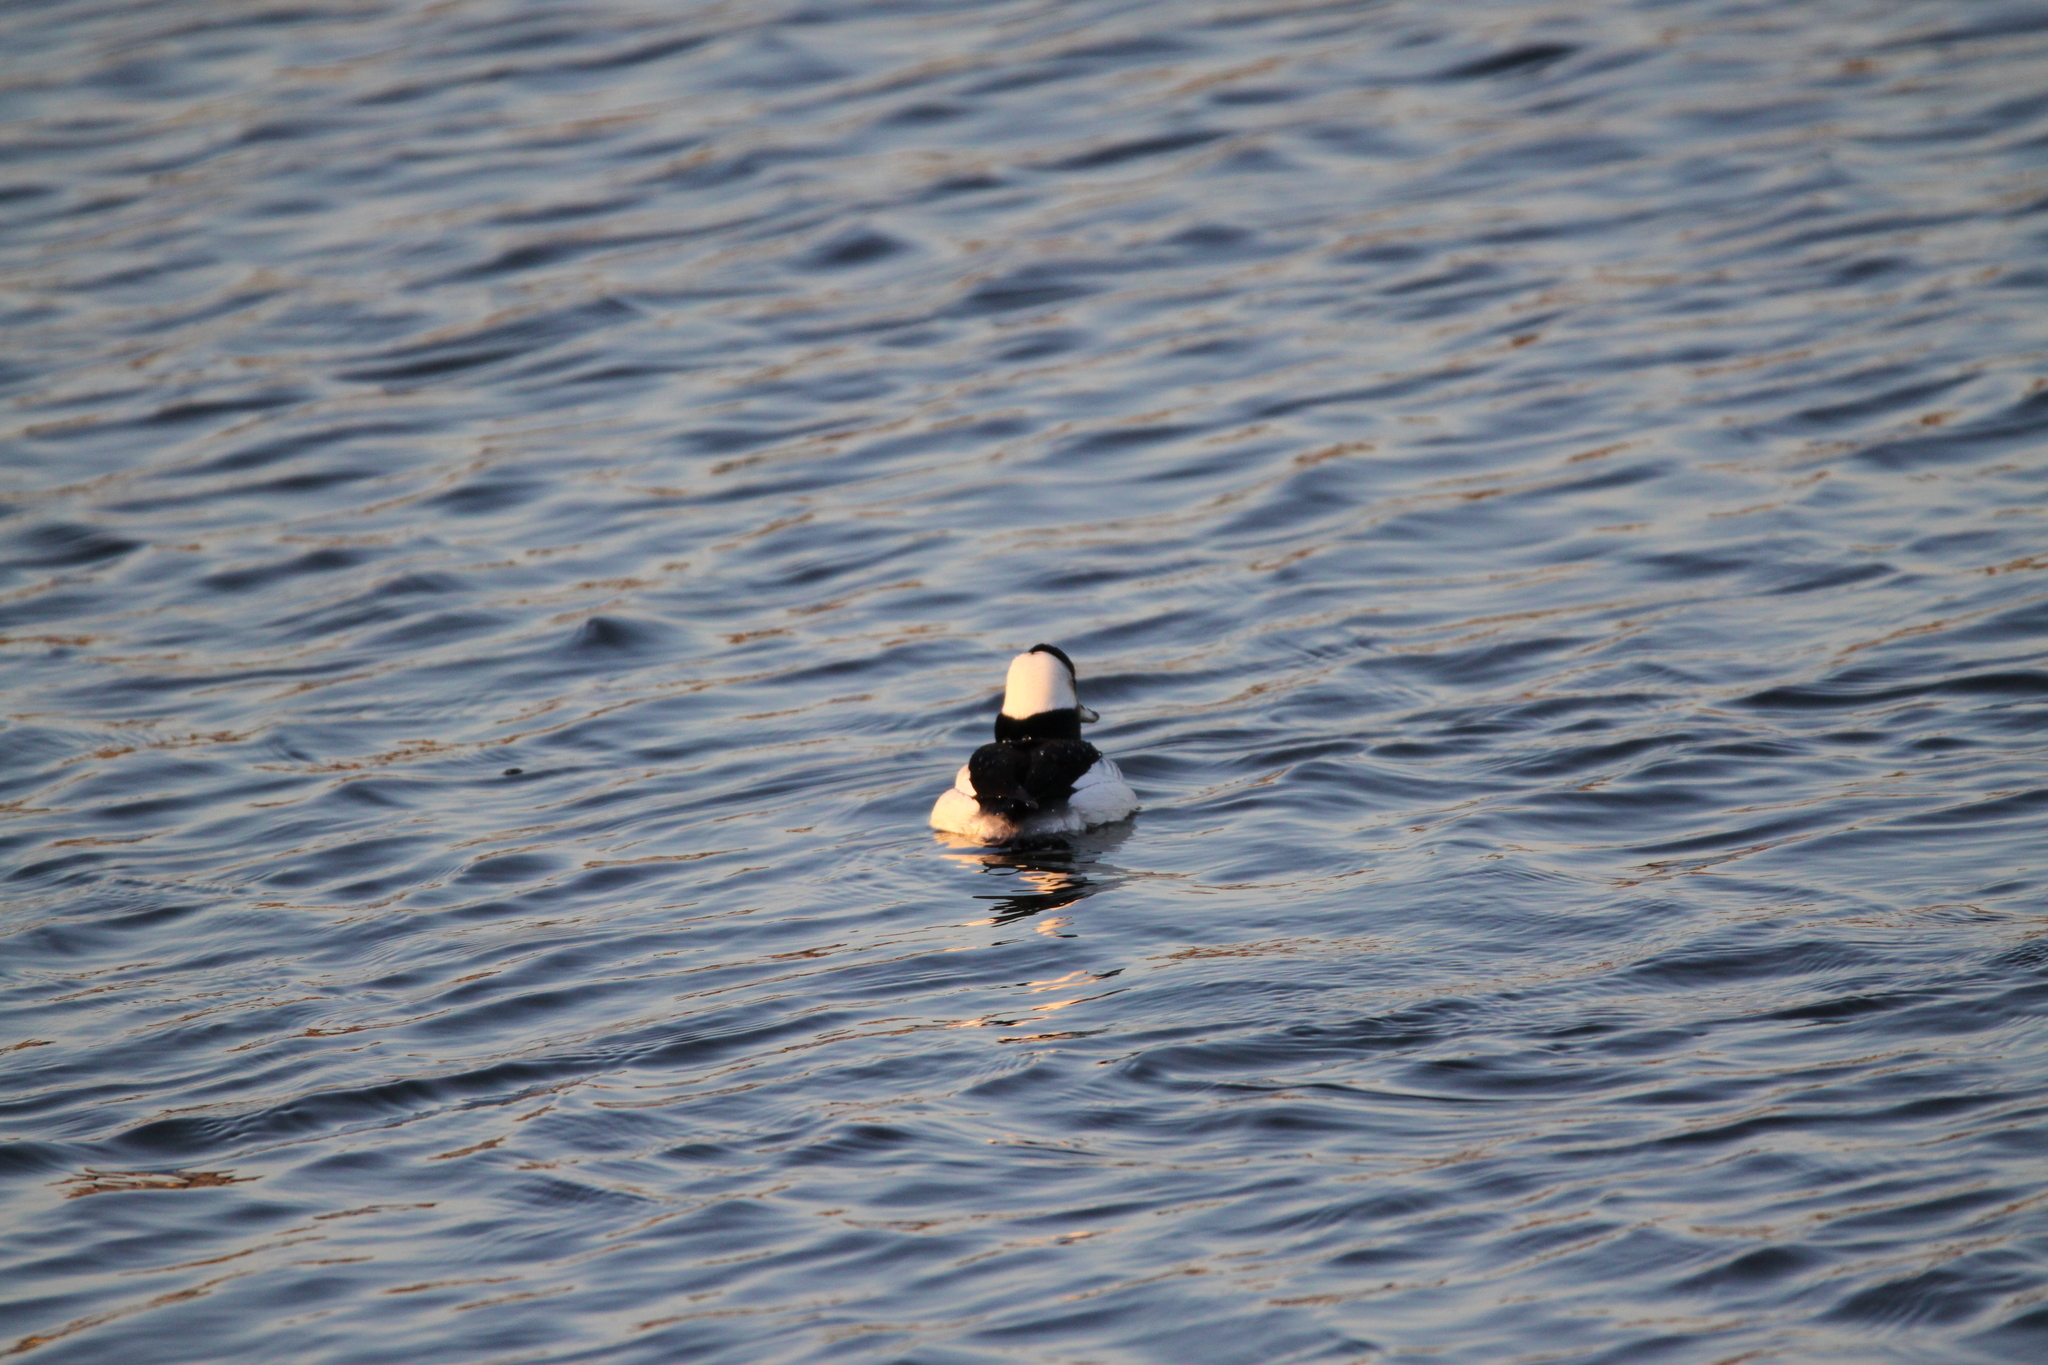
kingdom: Animalia
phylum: Chordata
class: Aves
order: Anseriformes
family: Anatidae
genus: Bucephala
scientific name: Bucephala albeola
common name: Bufflehead
